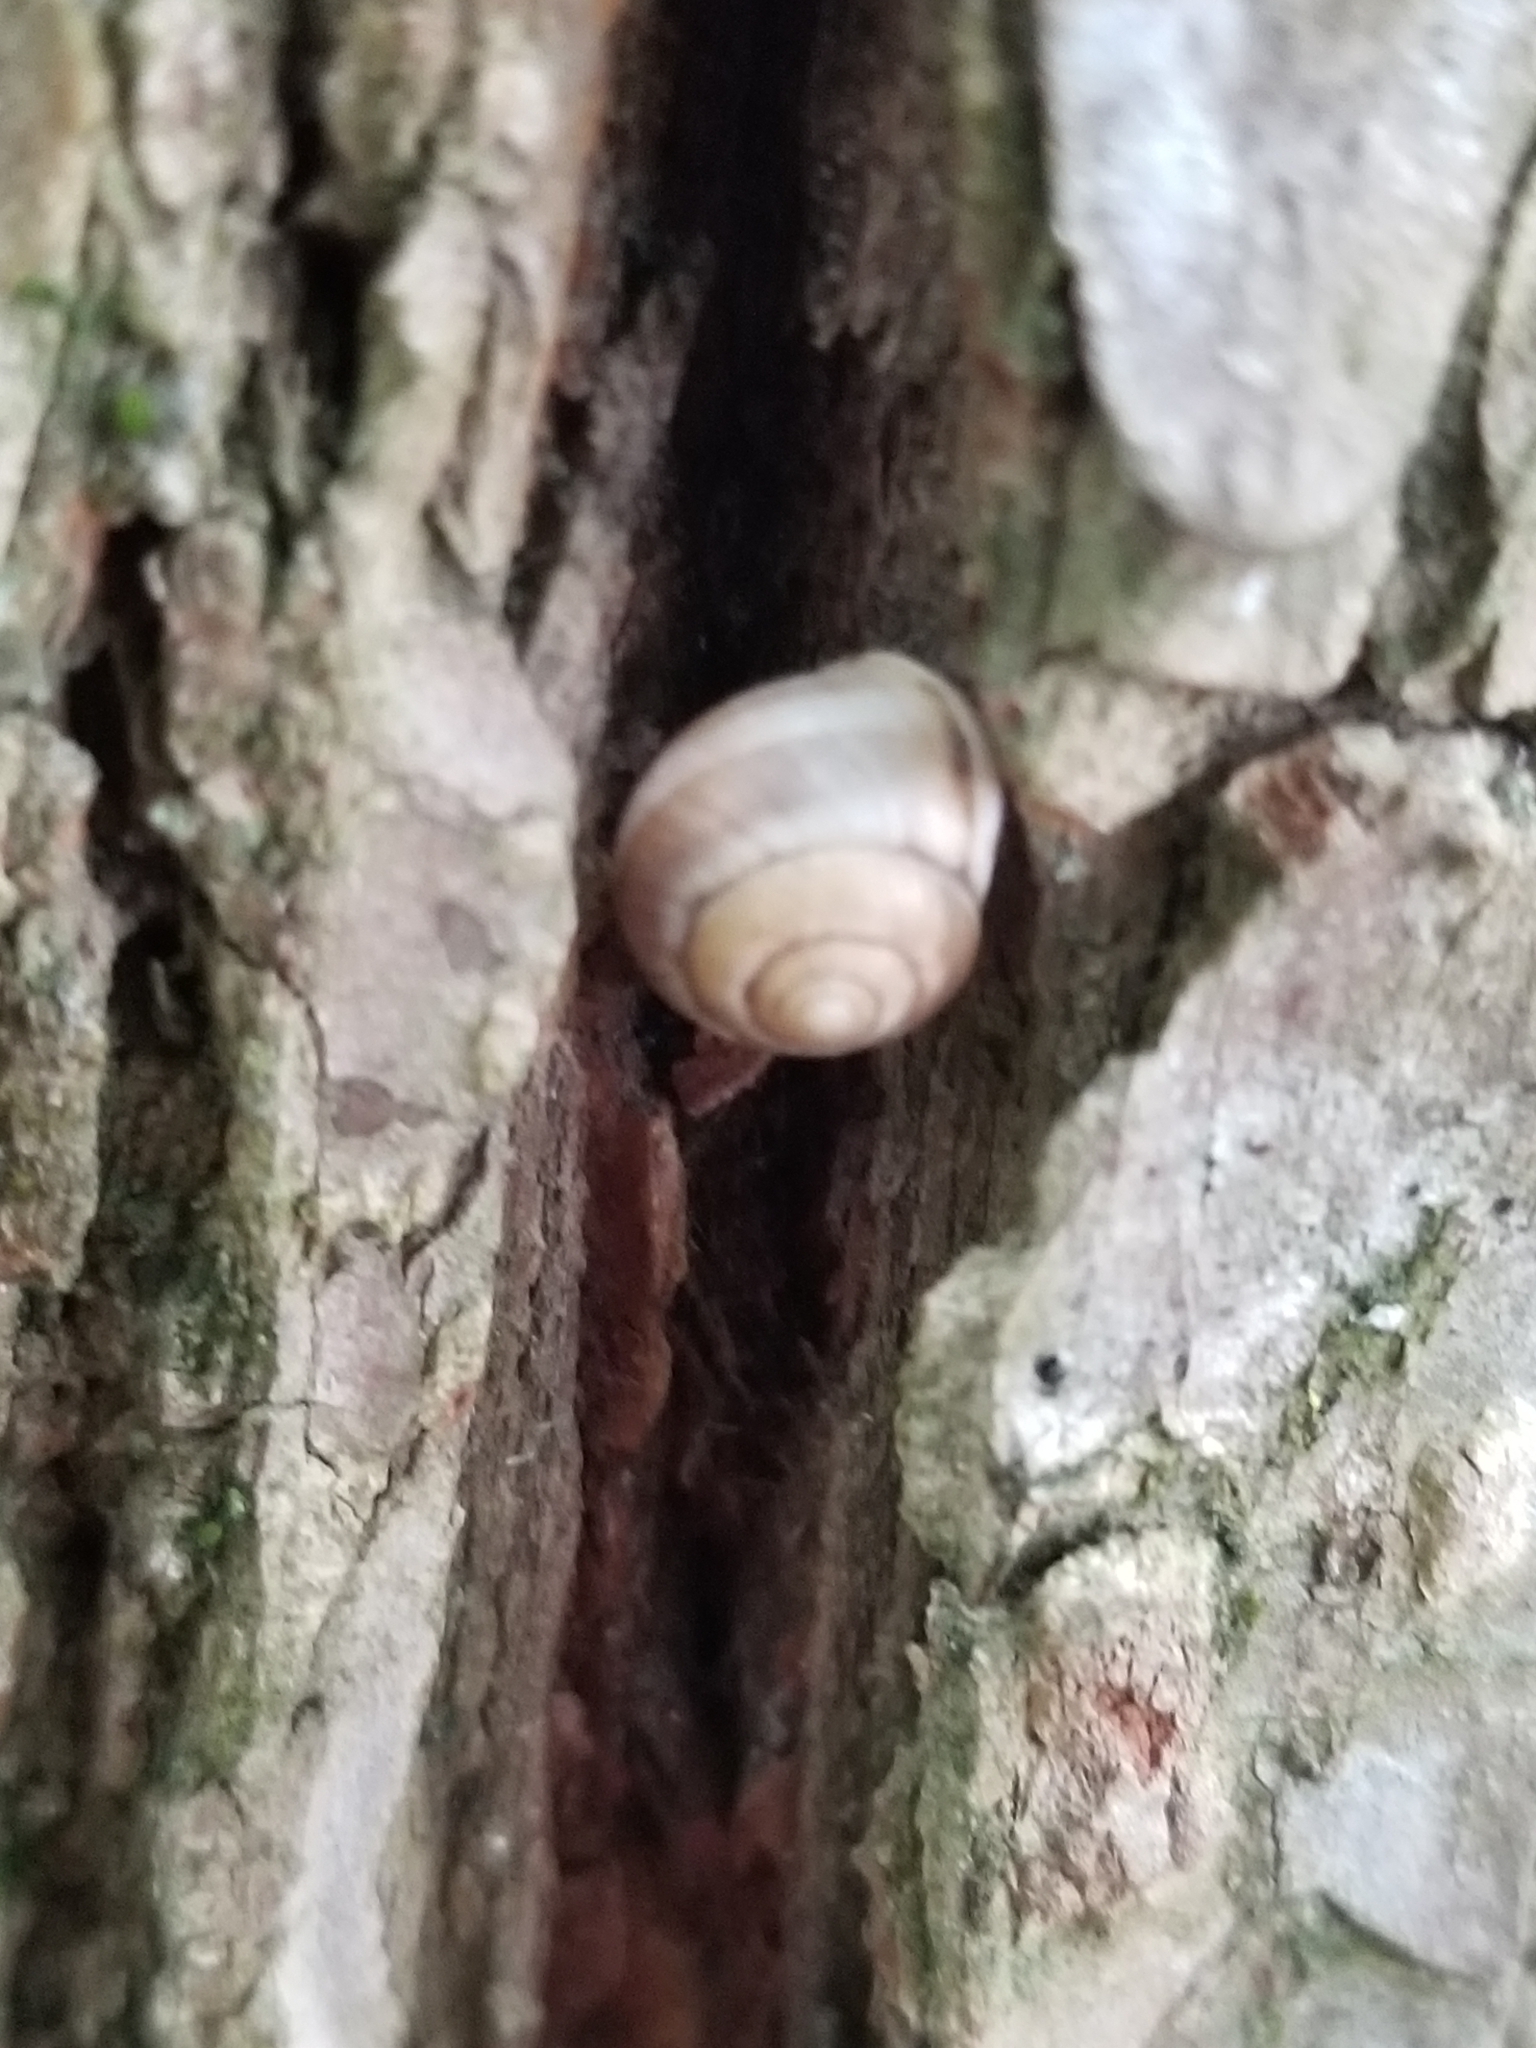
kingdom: Animalia
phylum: Mollusca
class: Gastropoda
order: Cycloneritida
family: Helicinidae
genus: Helicina
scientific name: Helicina orbiculata
